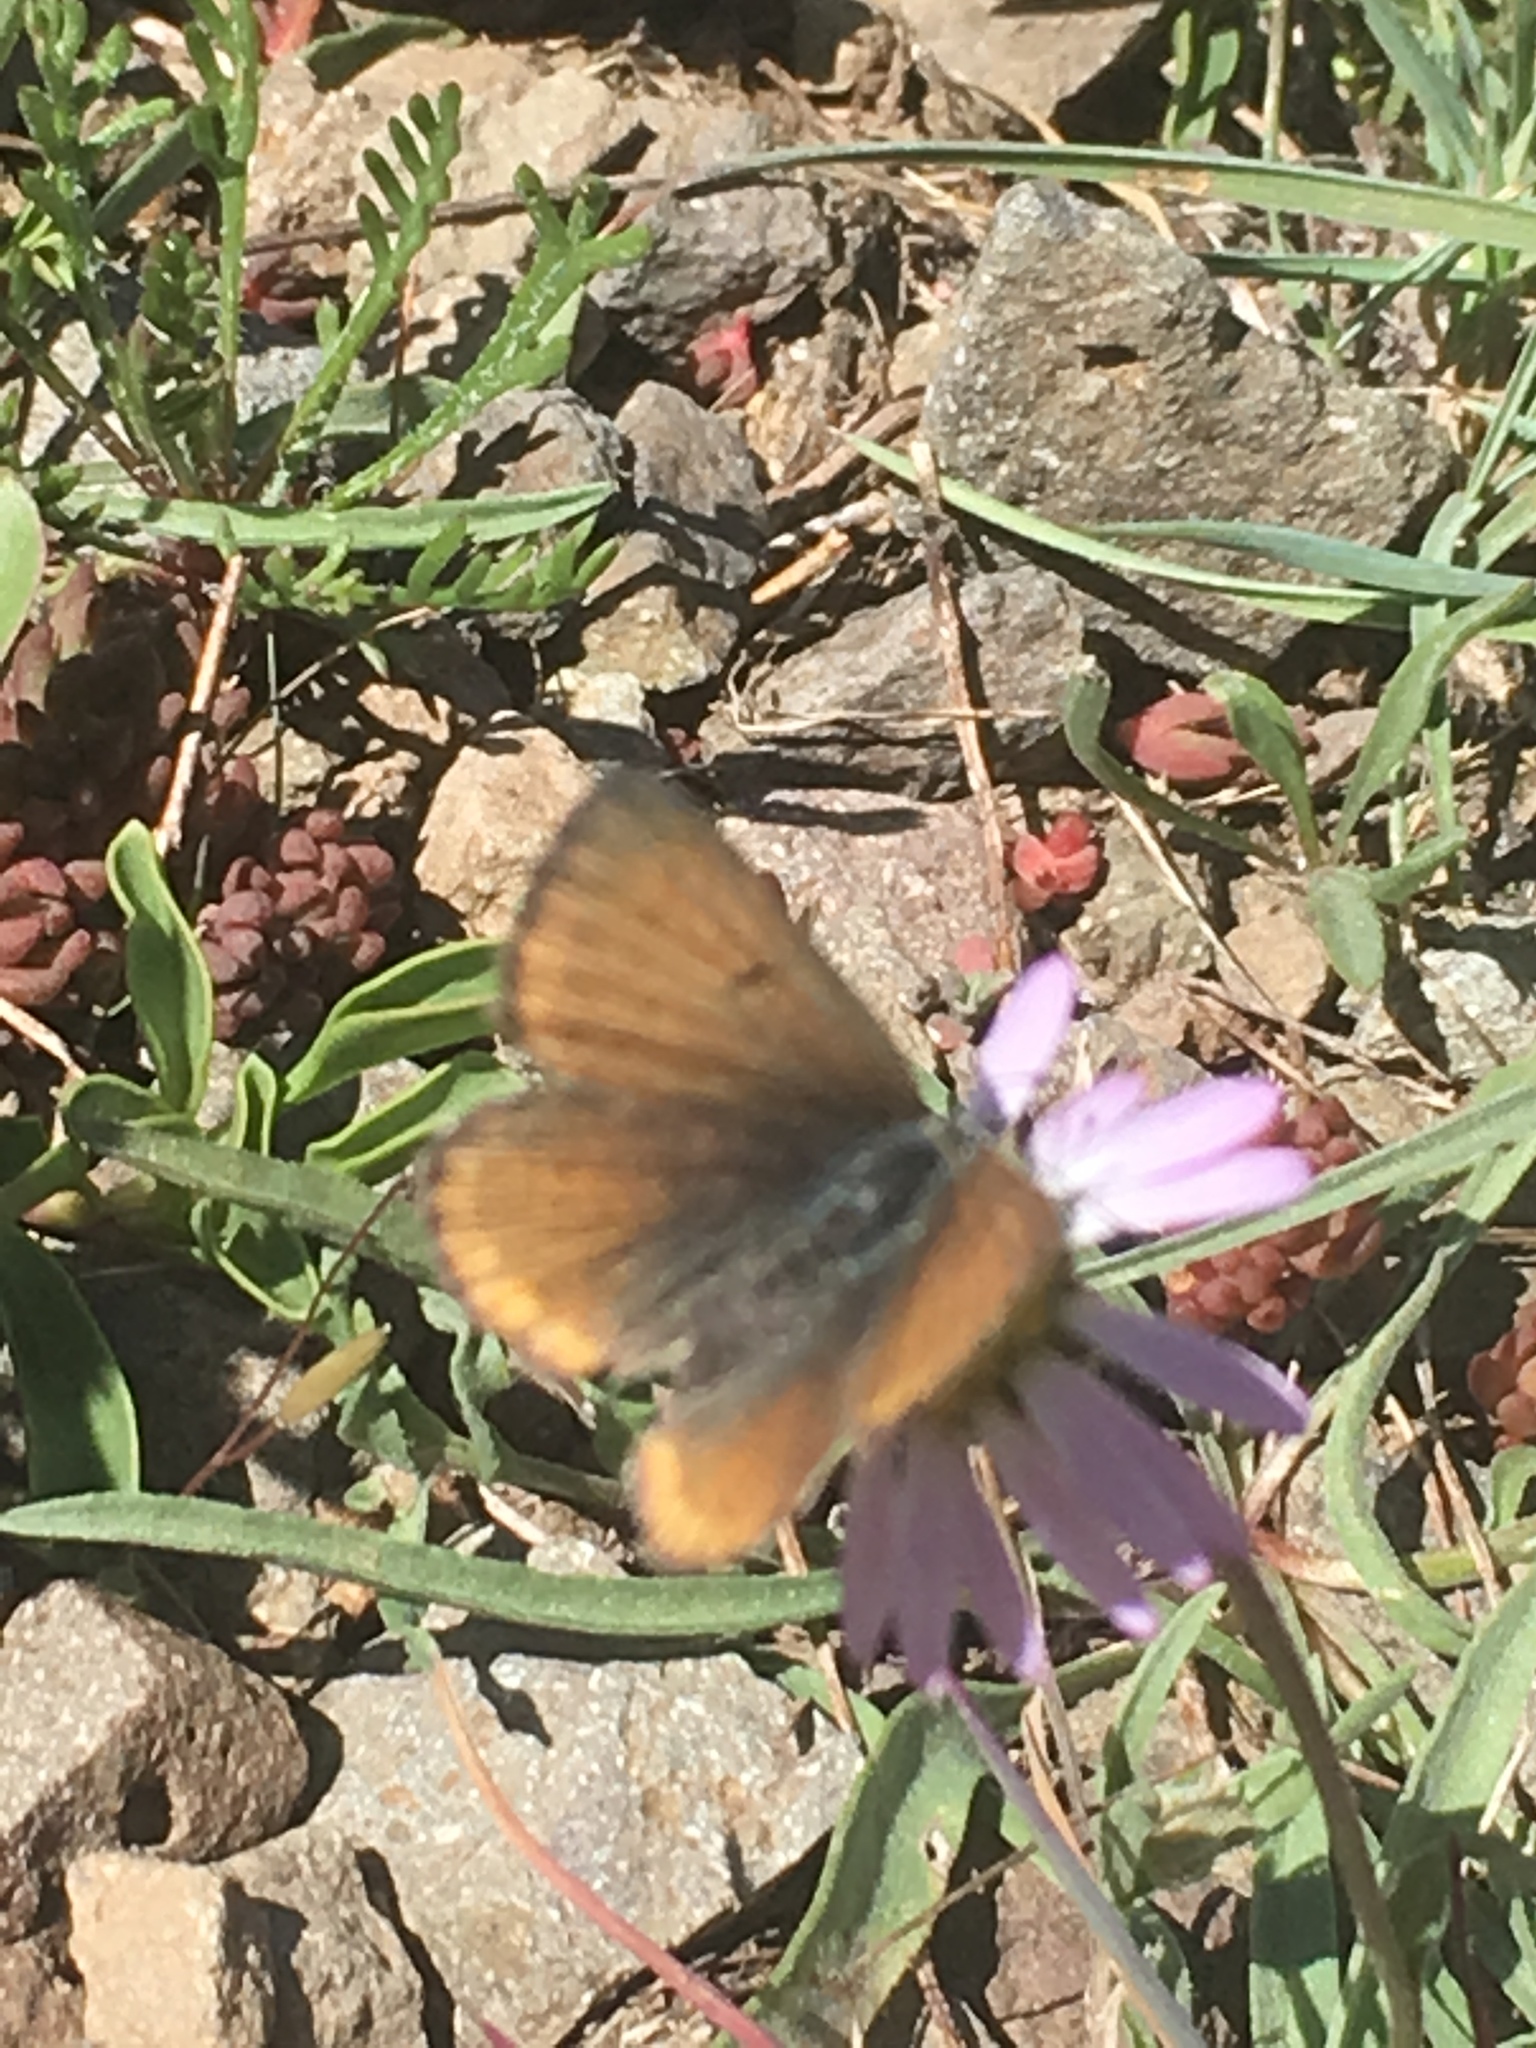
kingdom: Animalia
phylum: Arthropoda
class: Insecta
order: Lepidoptera
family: Lycaenidae
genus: Icaricia
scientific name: Icaricia saepiolus
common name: Greenish blue
